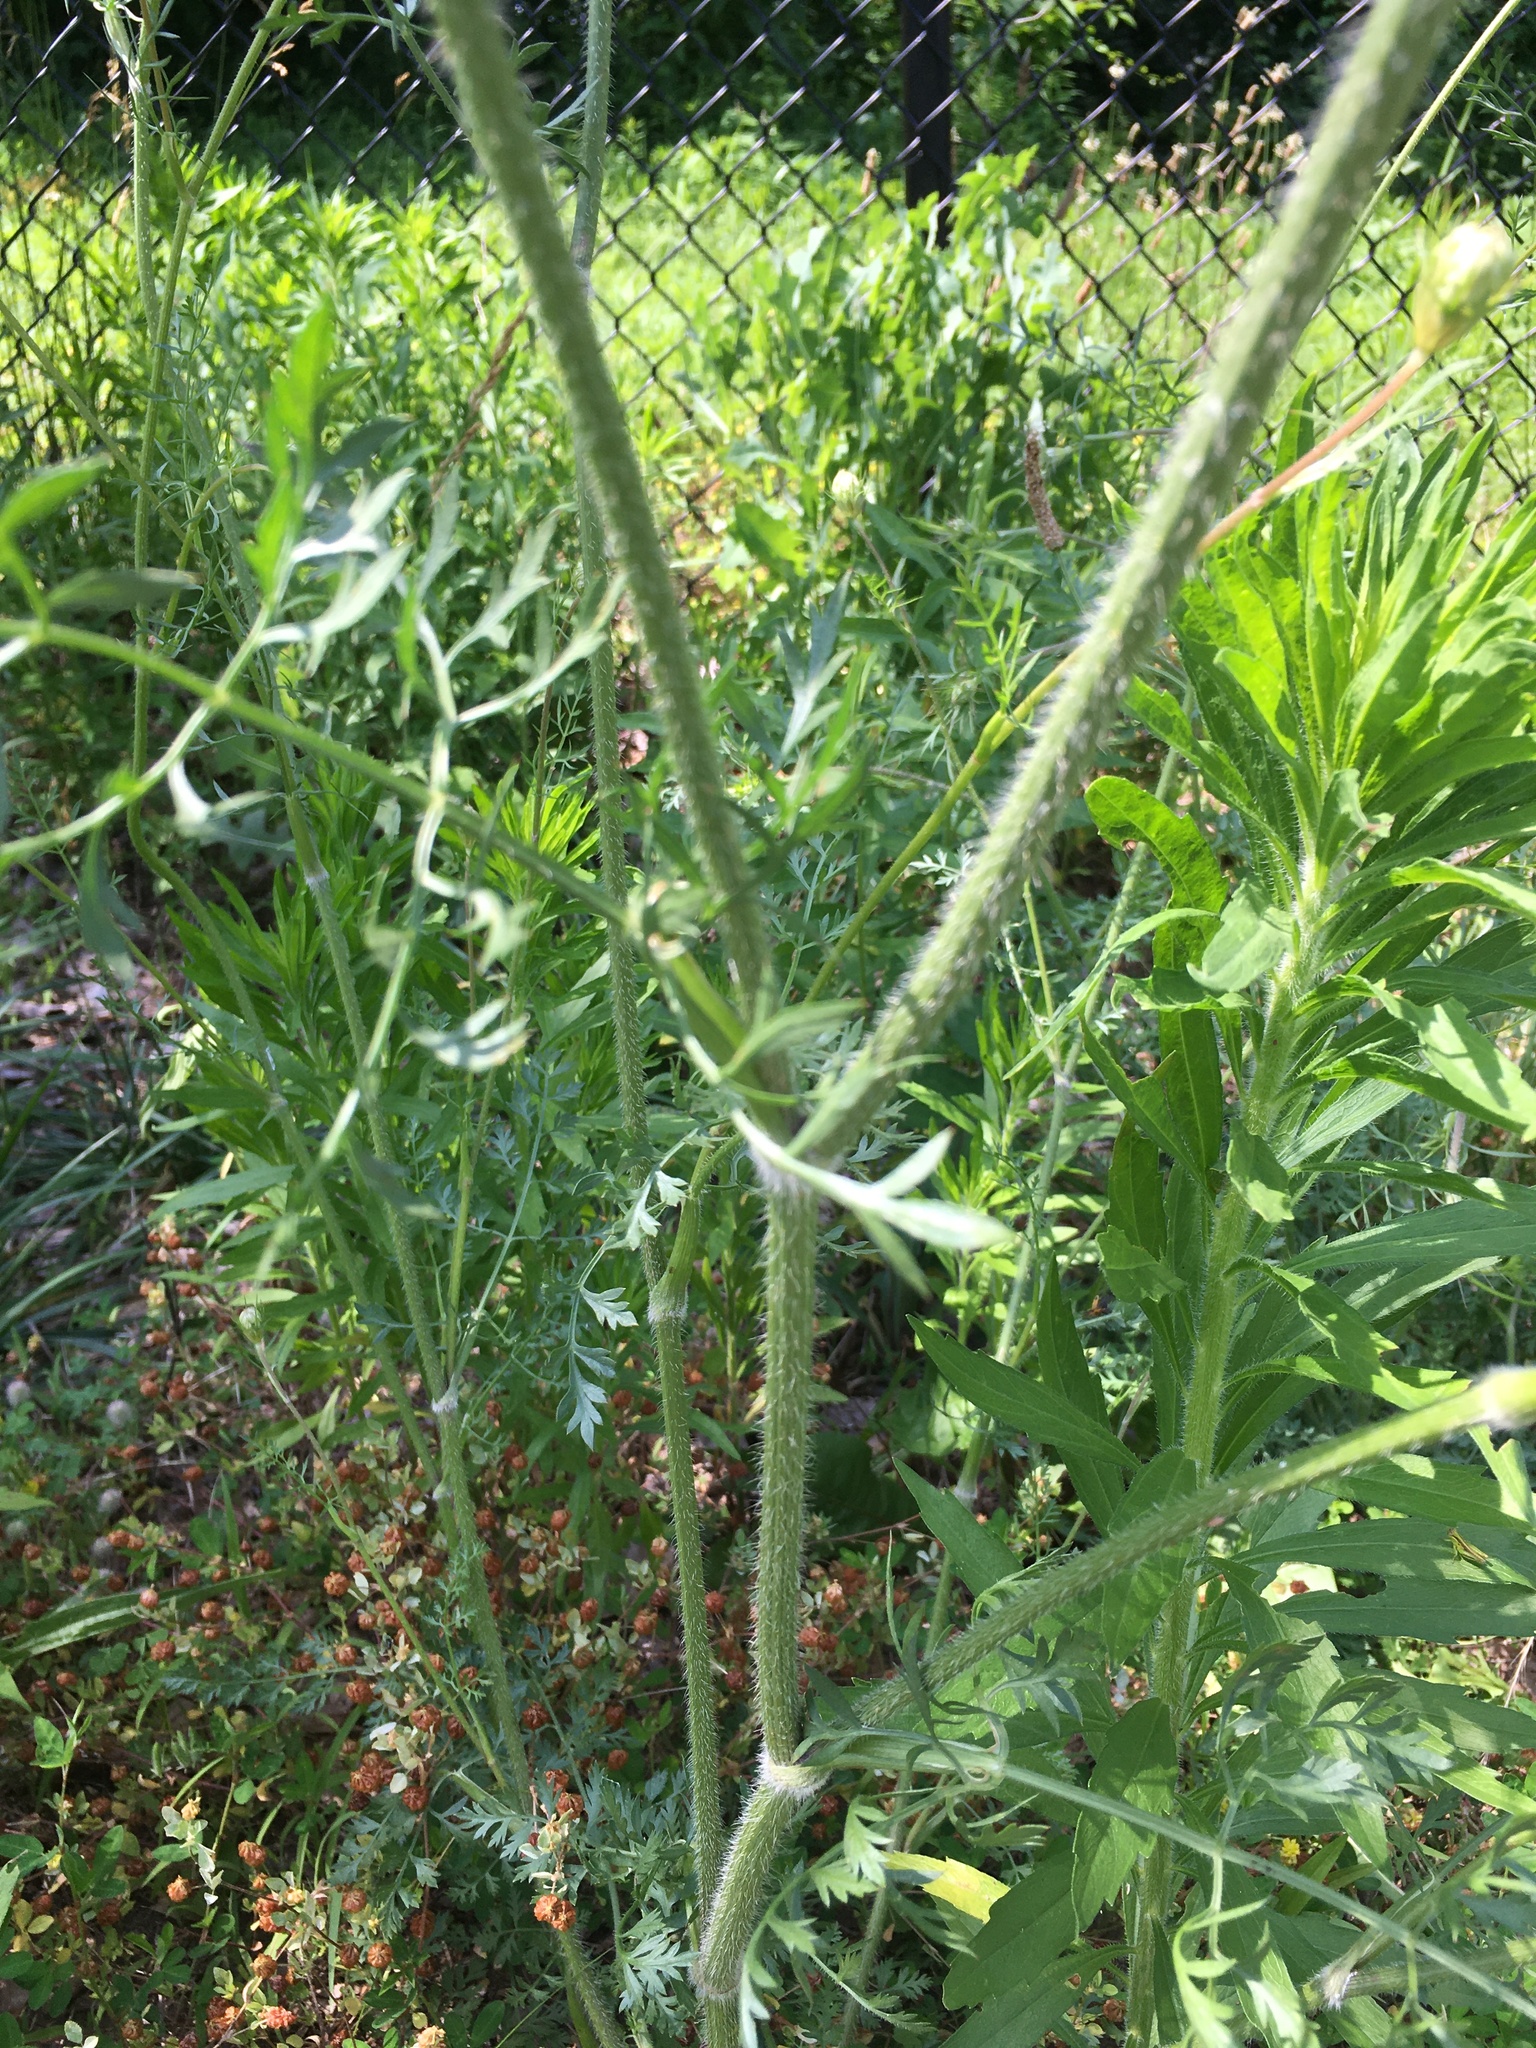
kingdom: Plantae
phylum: Tracheophyta
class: Magnoliopsida
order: Apiales
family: Apiaceae
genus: Daucus
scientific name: Daucus carota
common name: Wild carrot
